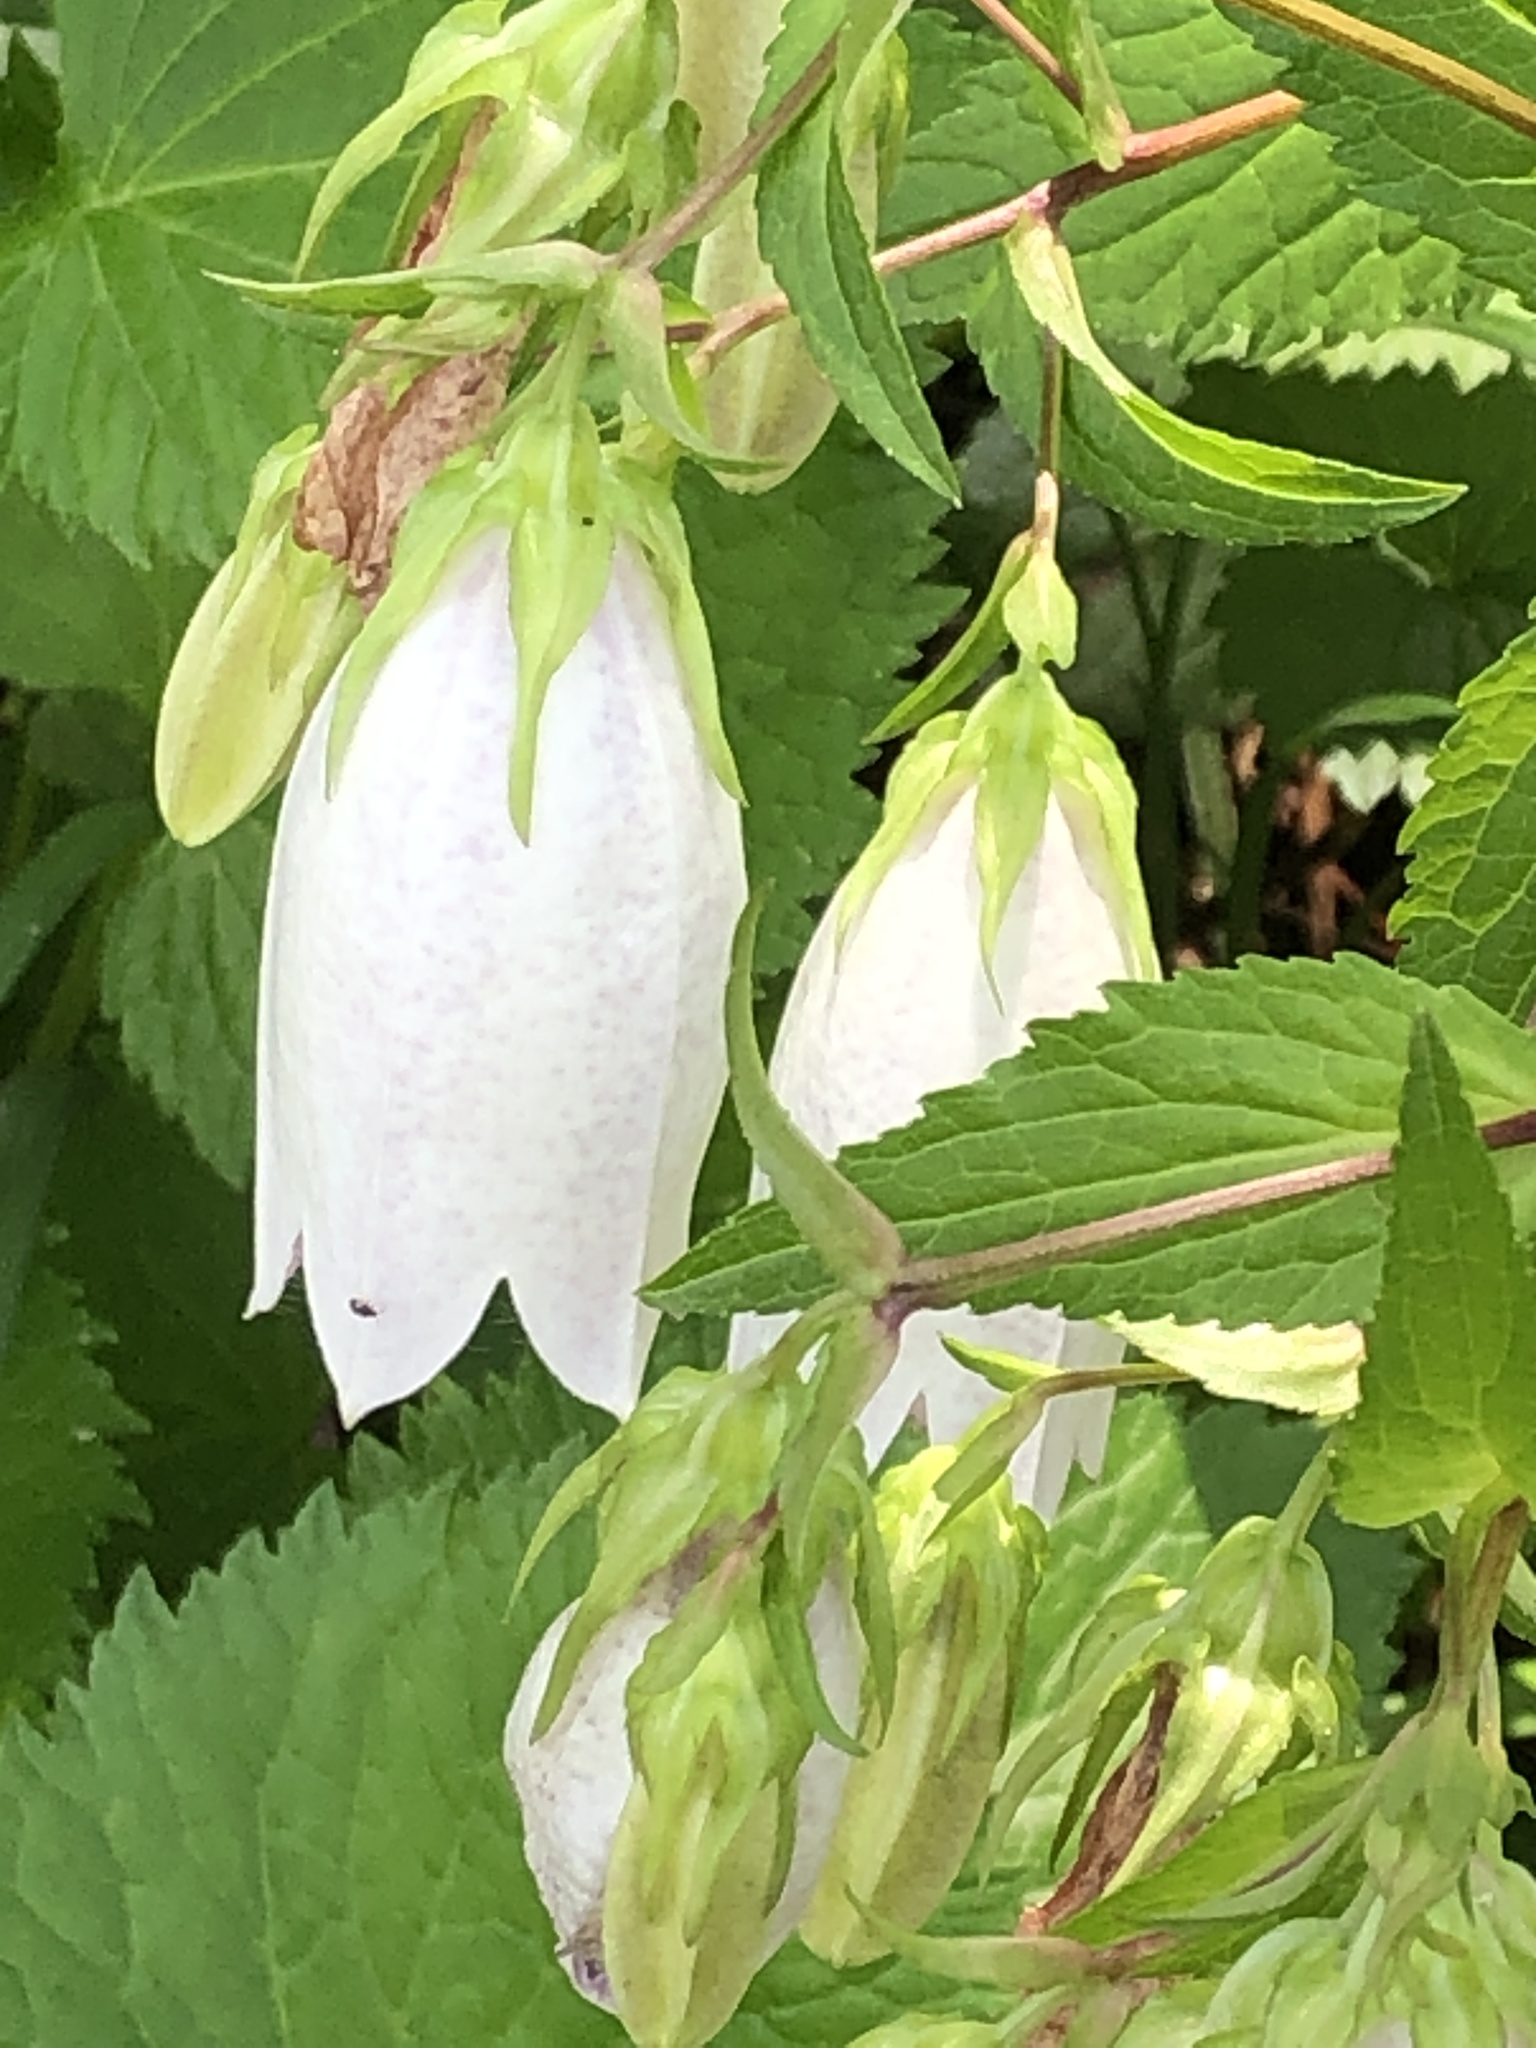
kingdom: Plantae
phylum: Tracheophyta
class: Magnoliopsida
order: Asterales
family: Campanulaceae
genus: Campanula
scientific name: Campanula punctata
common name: Spotted bellflower
